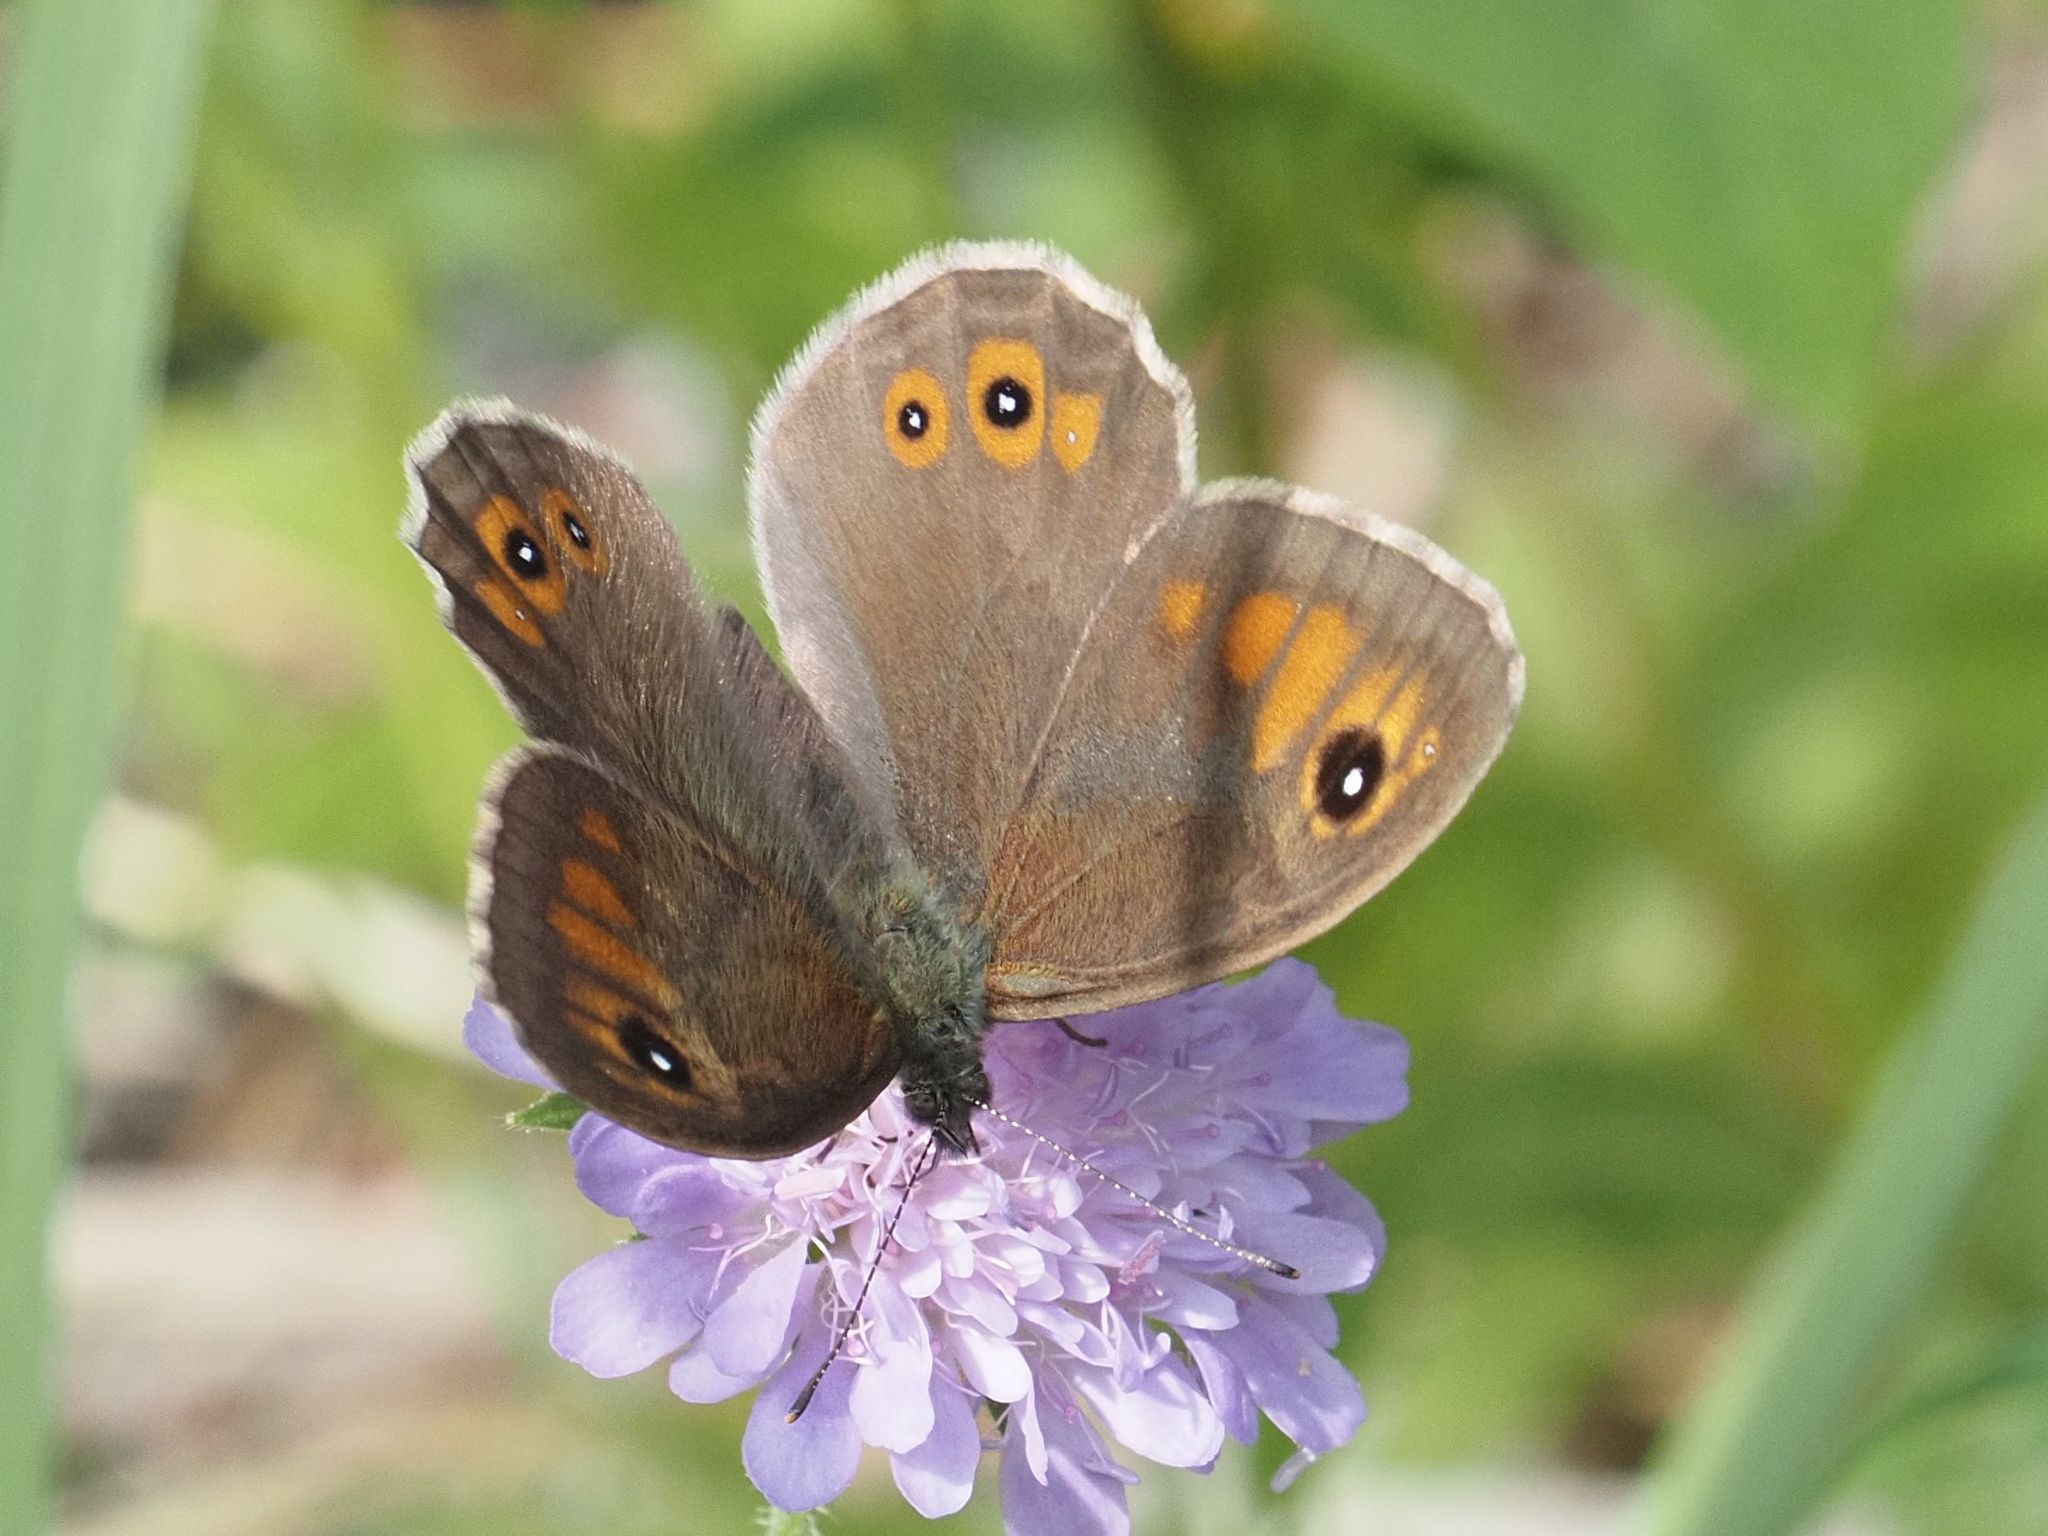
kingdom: Animalia
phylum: Arthropoda
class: Insecta
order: Lepidoptera
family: Nymphalidae
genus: Pararge
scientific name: Pararge Lasiommata maera
